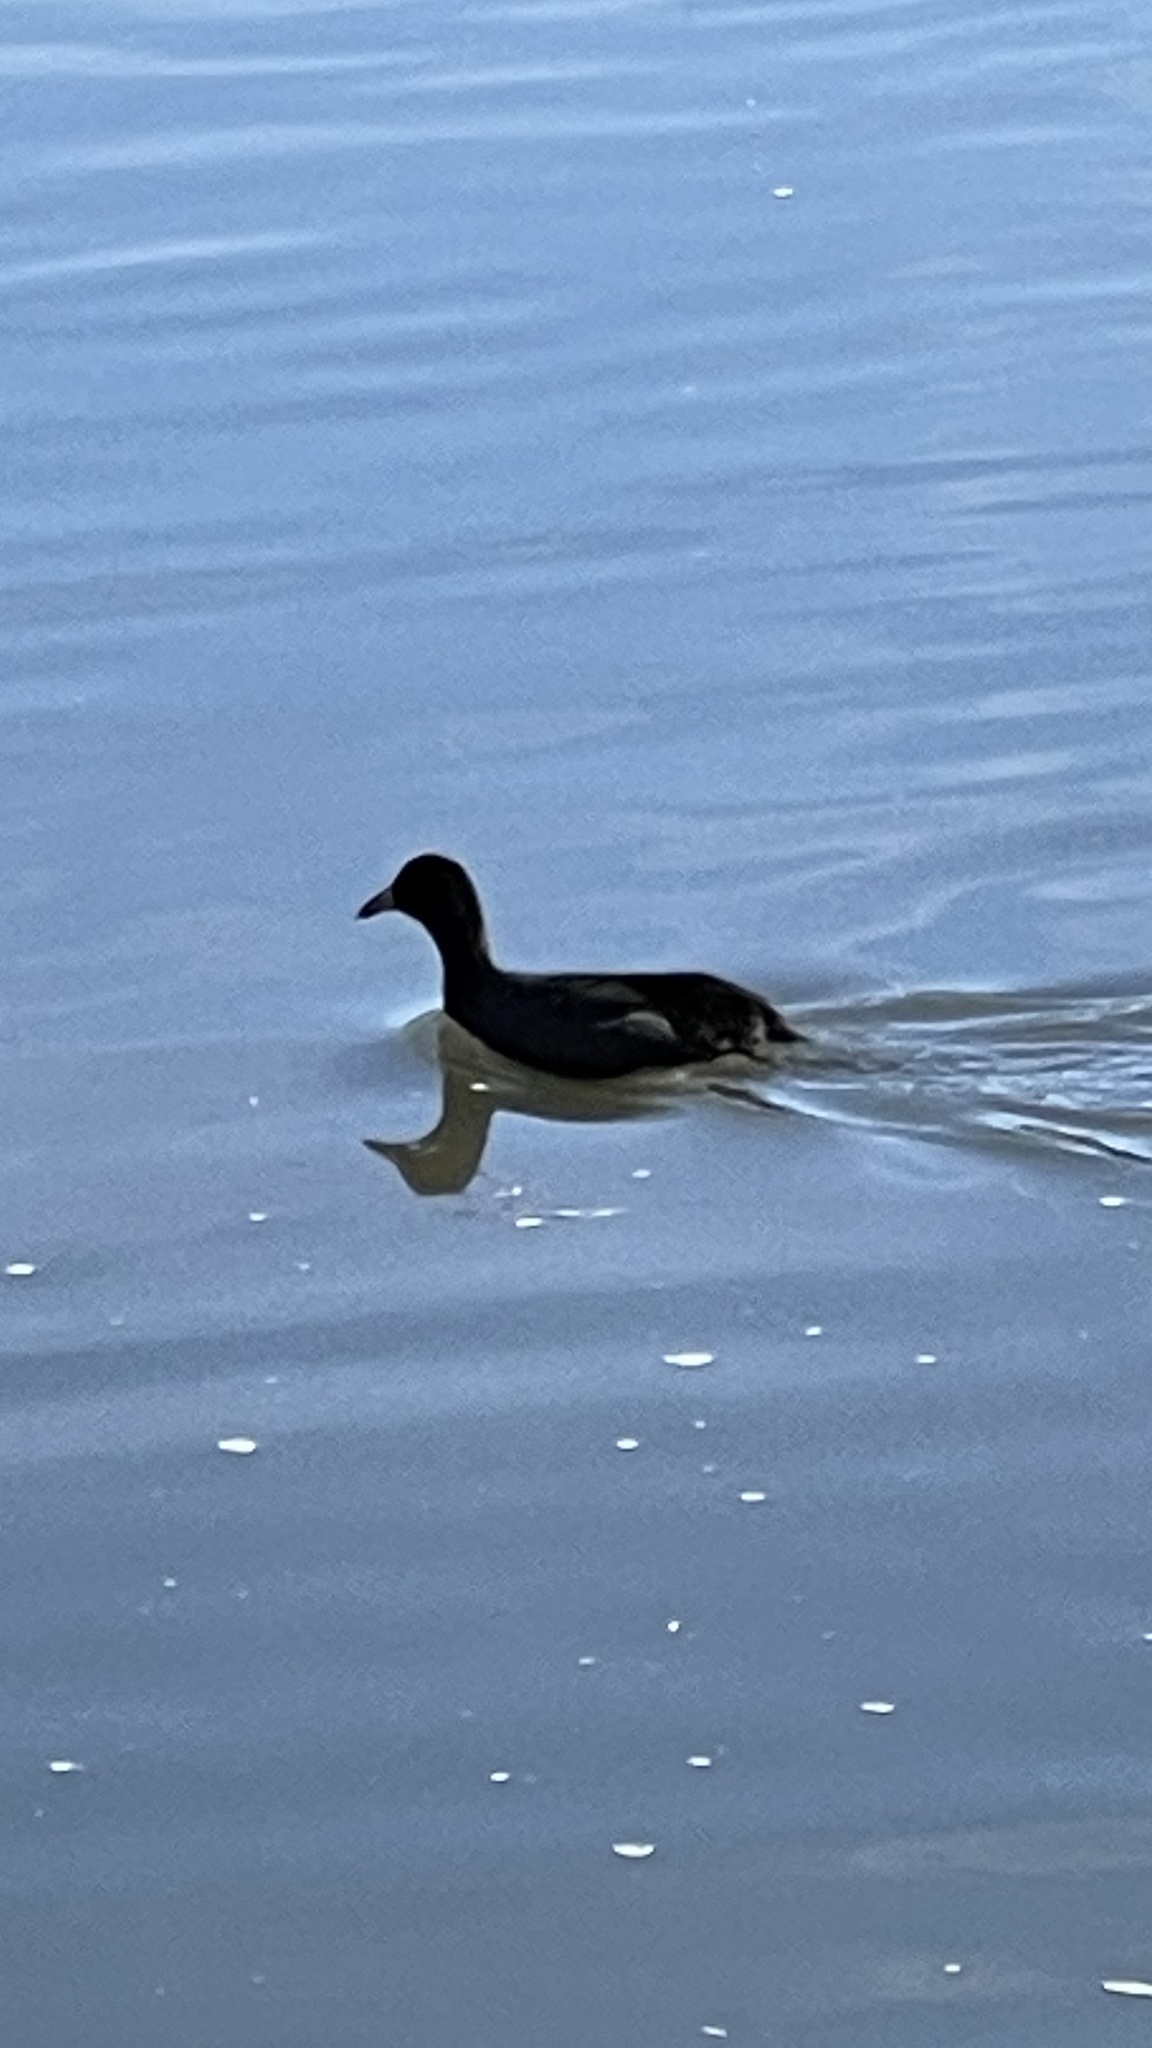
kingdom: Animalia
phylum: Chordata
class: Aves
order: Gruiformes
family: Rallidae
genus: Fulica
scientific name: Fulica americana
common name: American coot
